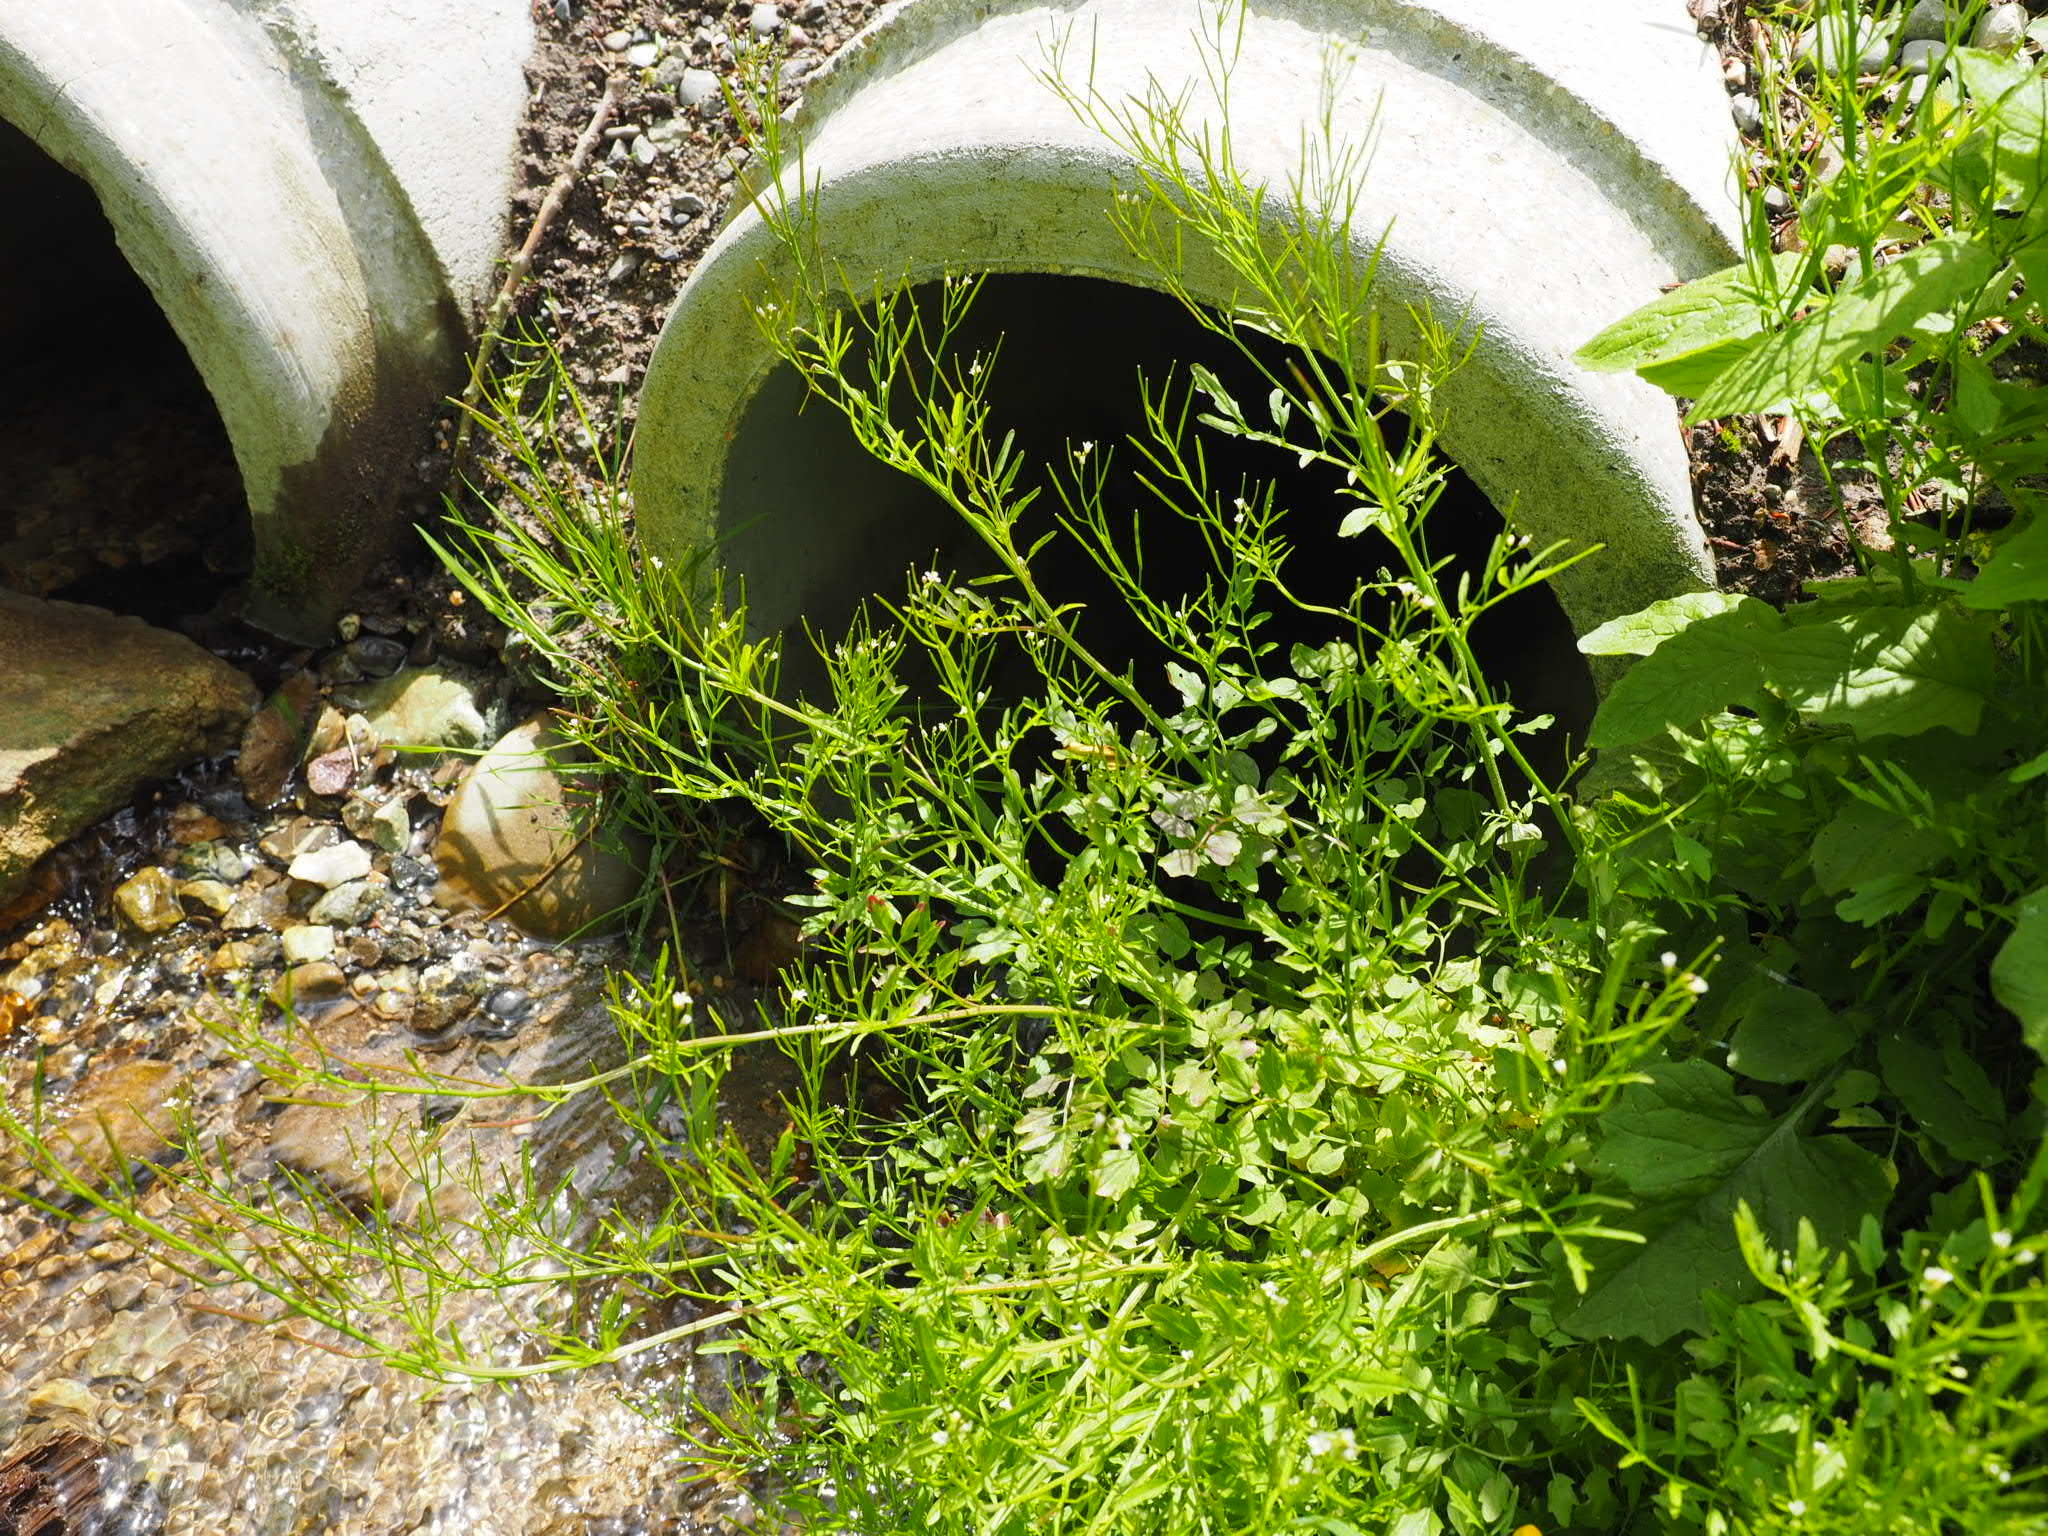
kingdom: Plantae
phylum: Tracheophyta
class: Magnoliopsida
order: Brassicales
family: Brassicaceae
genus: Cardamine
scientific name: Cardamine flexuosa
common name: Woodland bittercress
